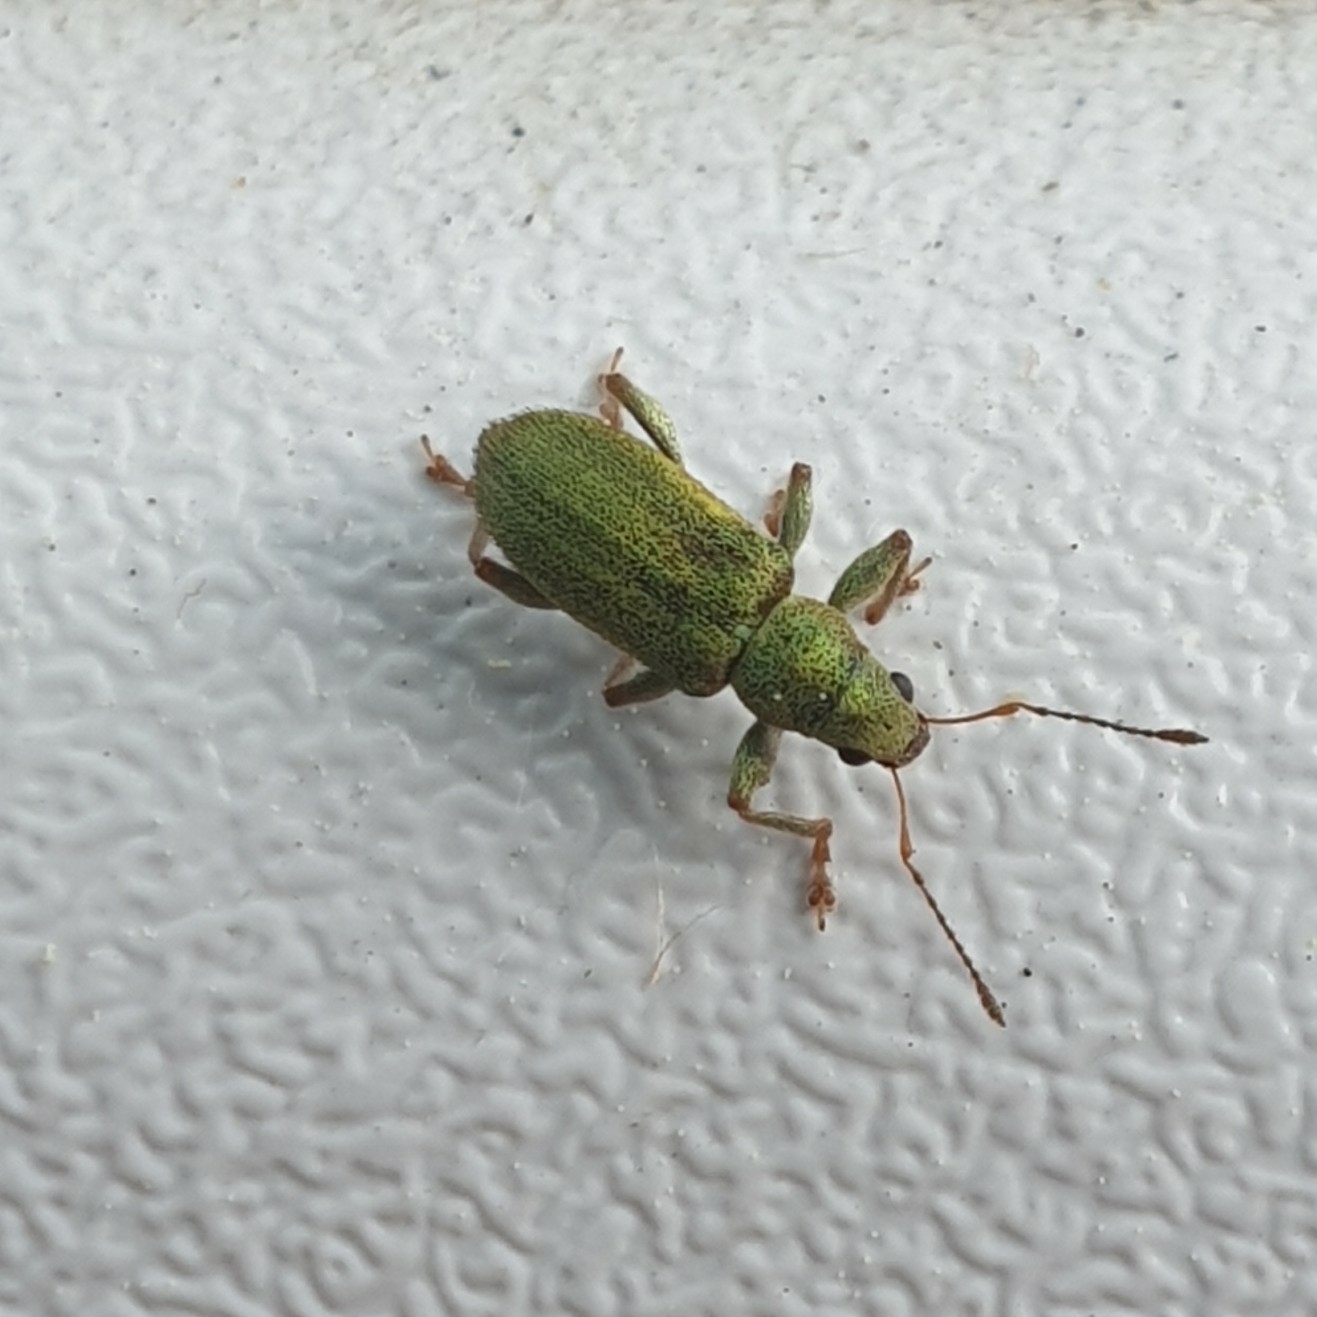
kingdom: Animalia
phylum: Arthropoda
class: Insecta
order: Coleoptera
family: Curculionidae
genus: Pachyrhinus
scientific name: Pachyrhinus lethierryi
